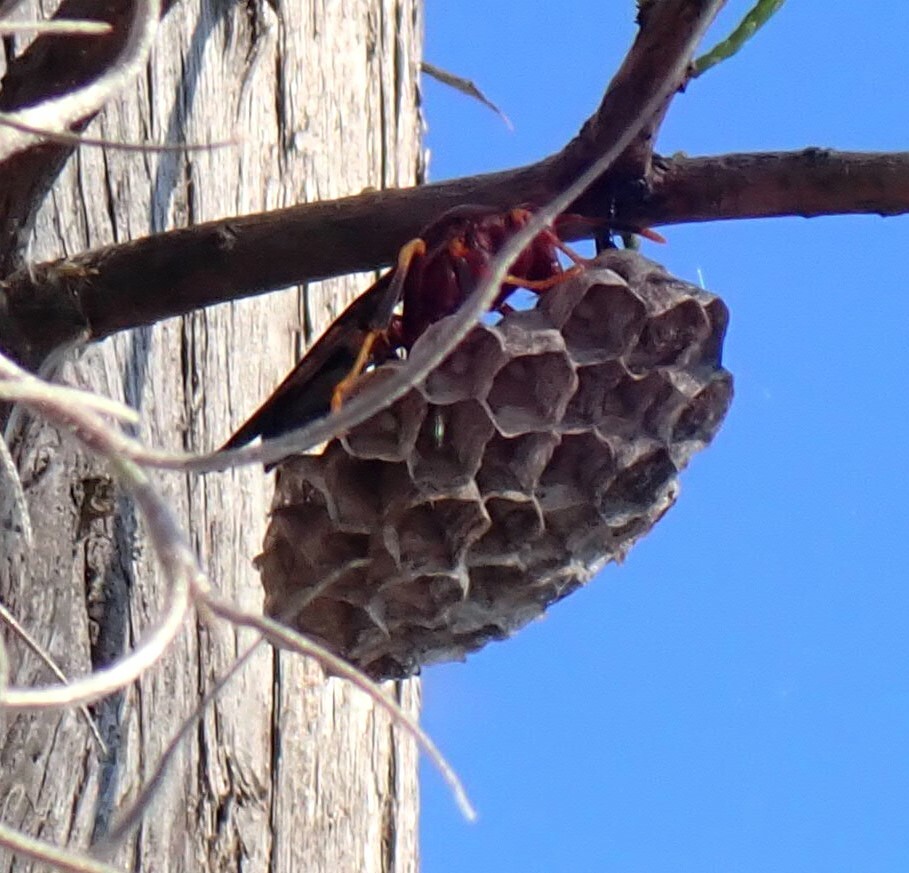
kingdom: Animalia
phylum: Arthropoda
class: Insecta
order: Hymenoptera
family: Eumenidae
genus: Polistes
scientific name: Polistes annularis
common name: Ringed paper wasp
